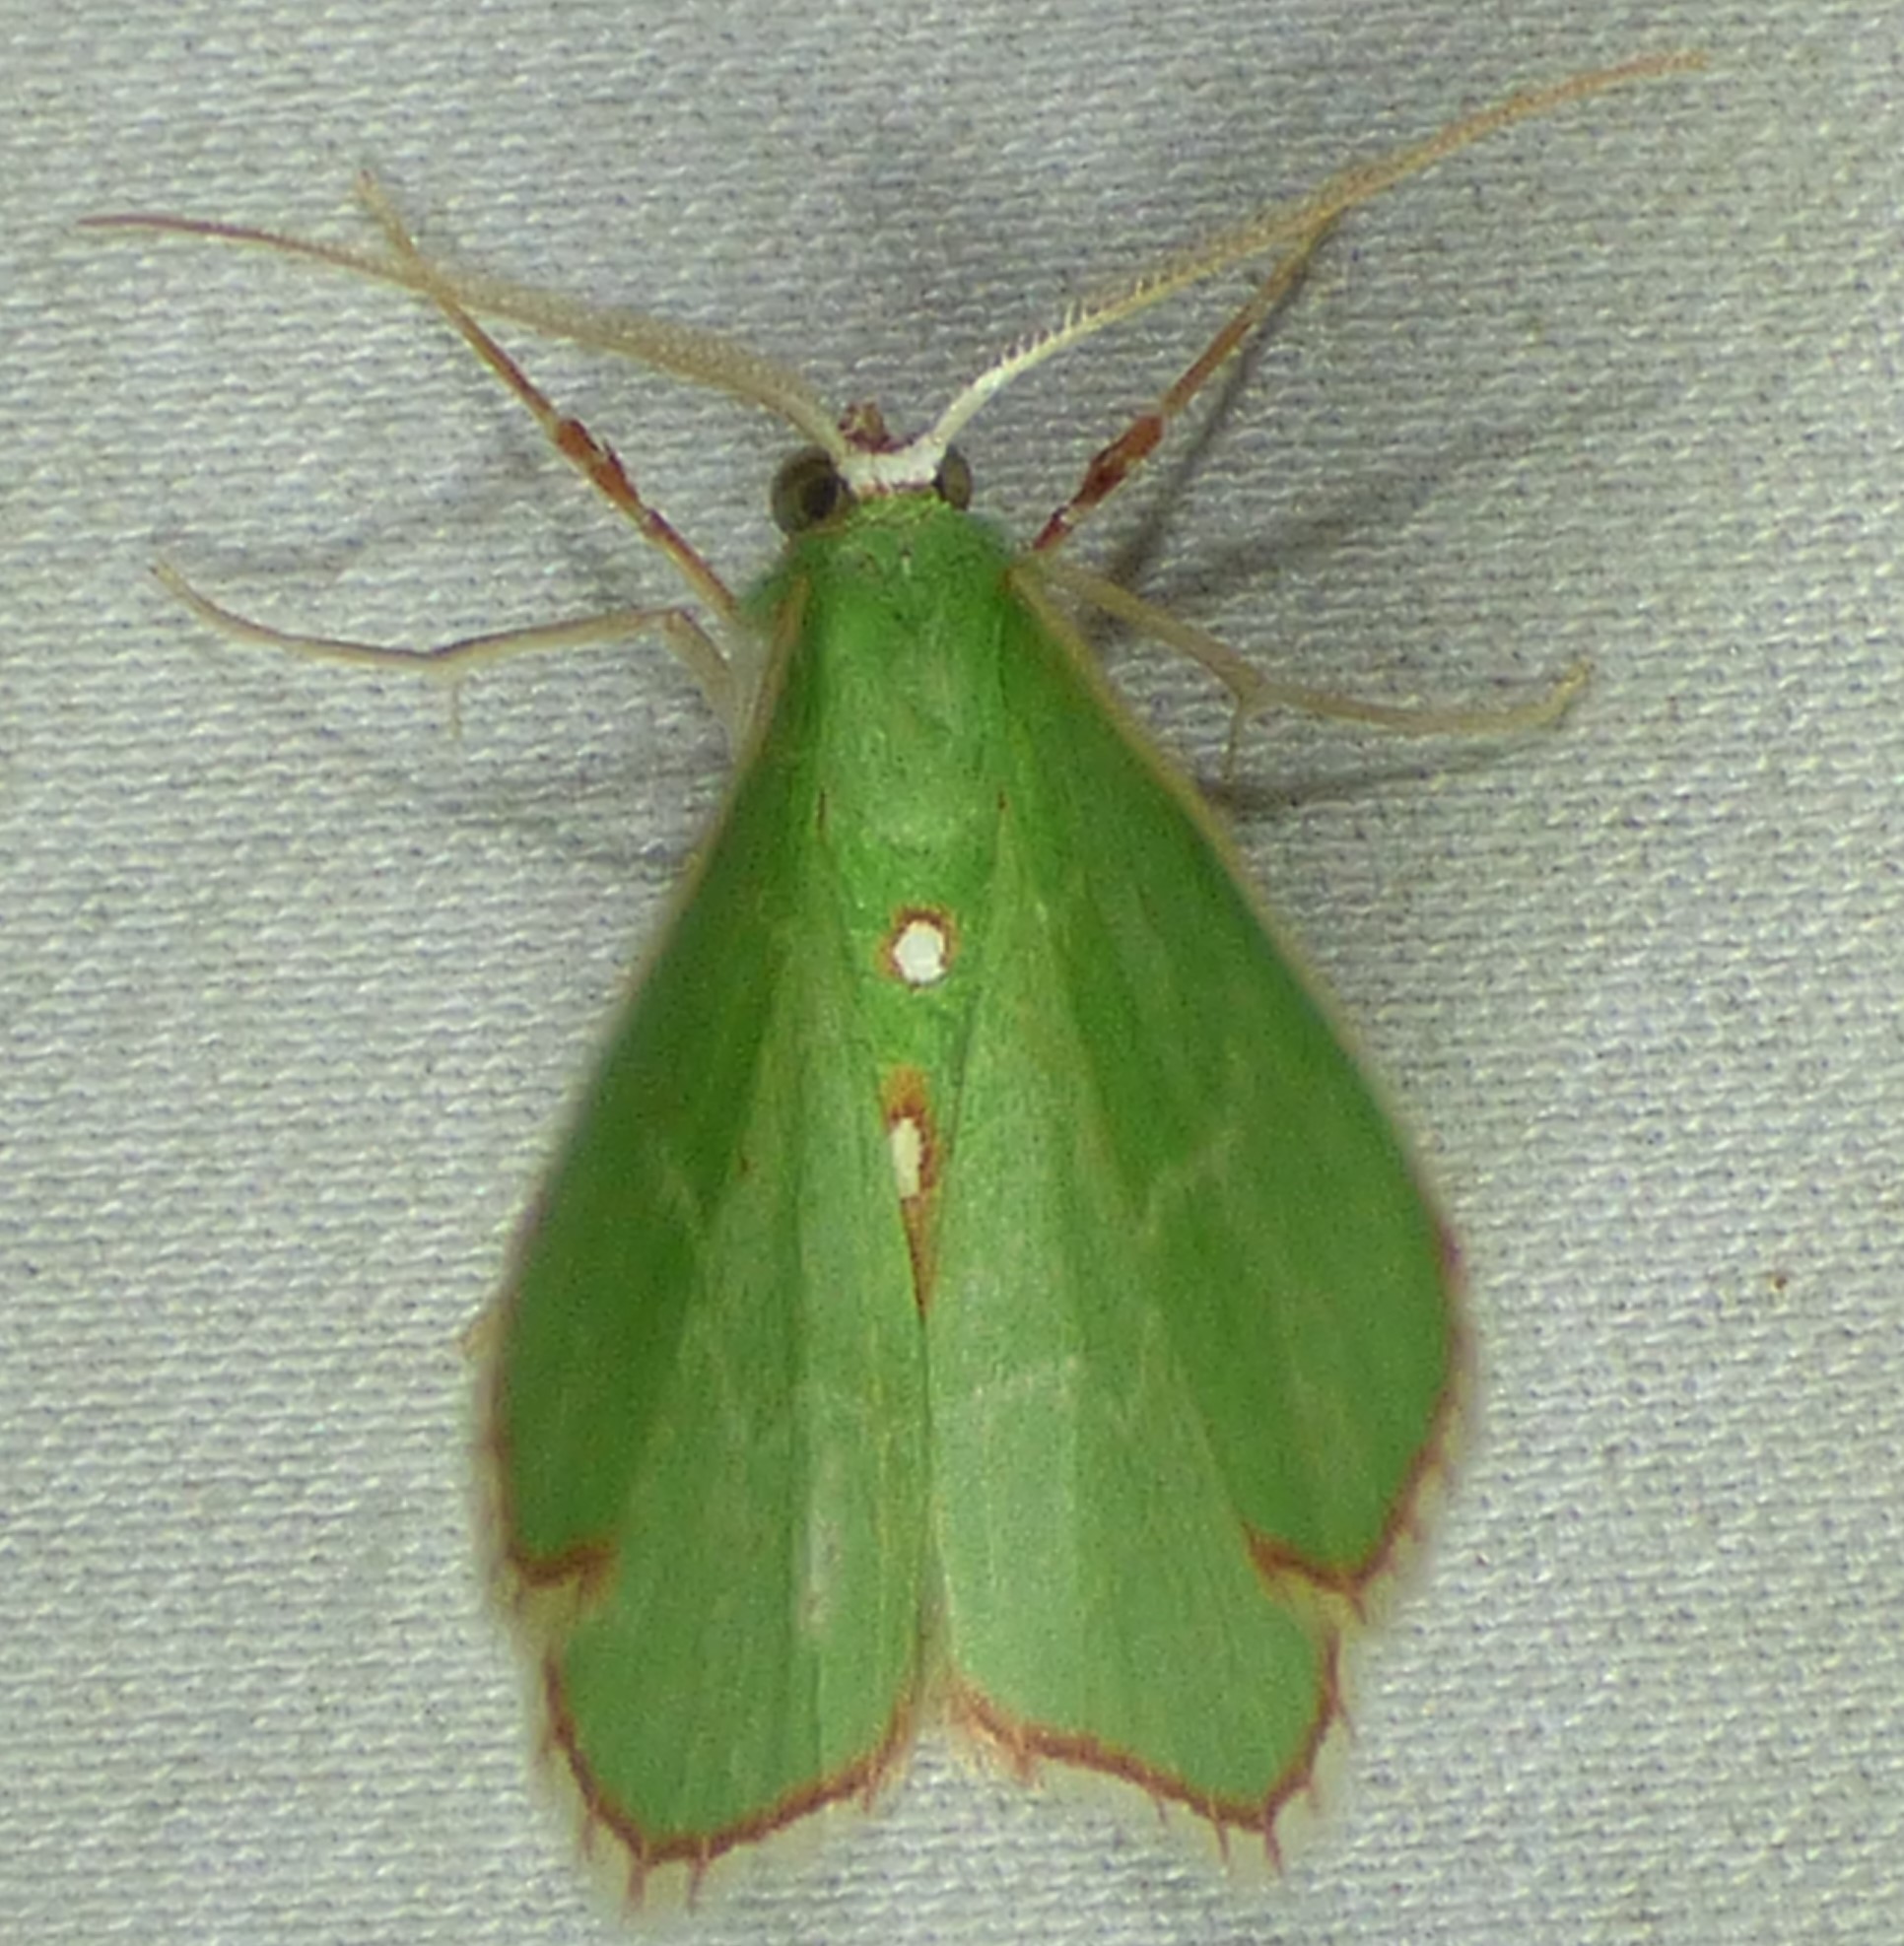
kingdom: Animalia
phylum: Arthropoda
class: Insecta
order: Lepidoptera
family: Geometridae
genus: Nemoria
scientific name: Nemoria lixaria
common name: Red-bordered emerald
